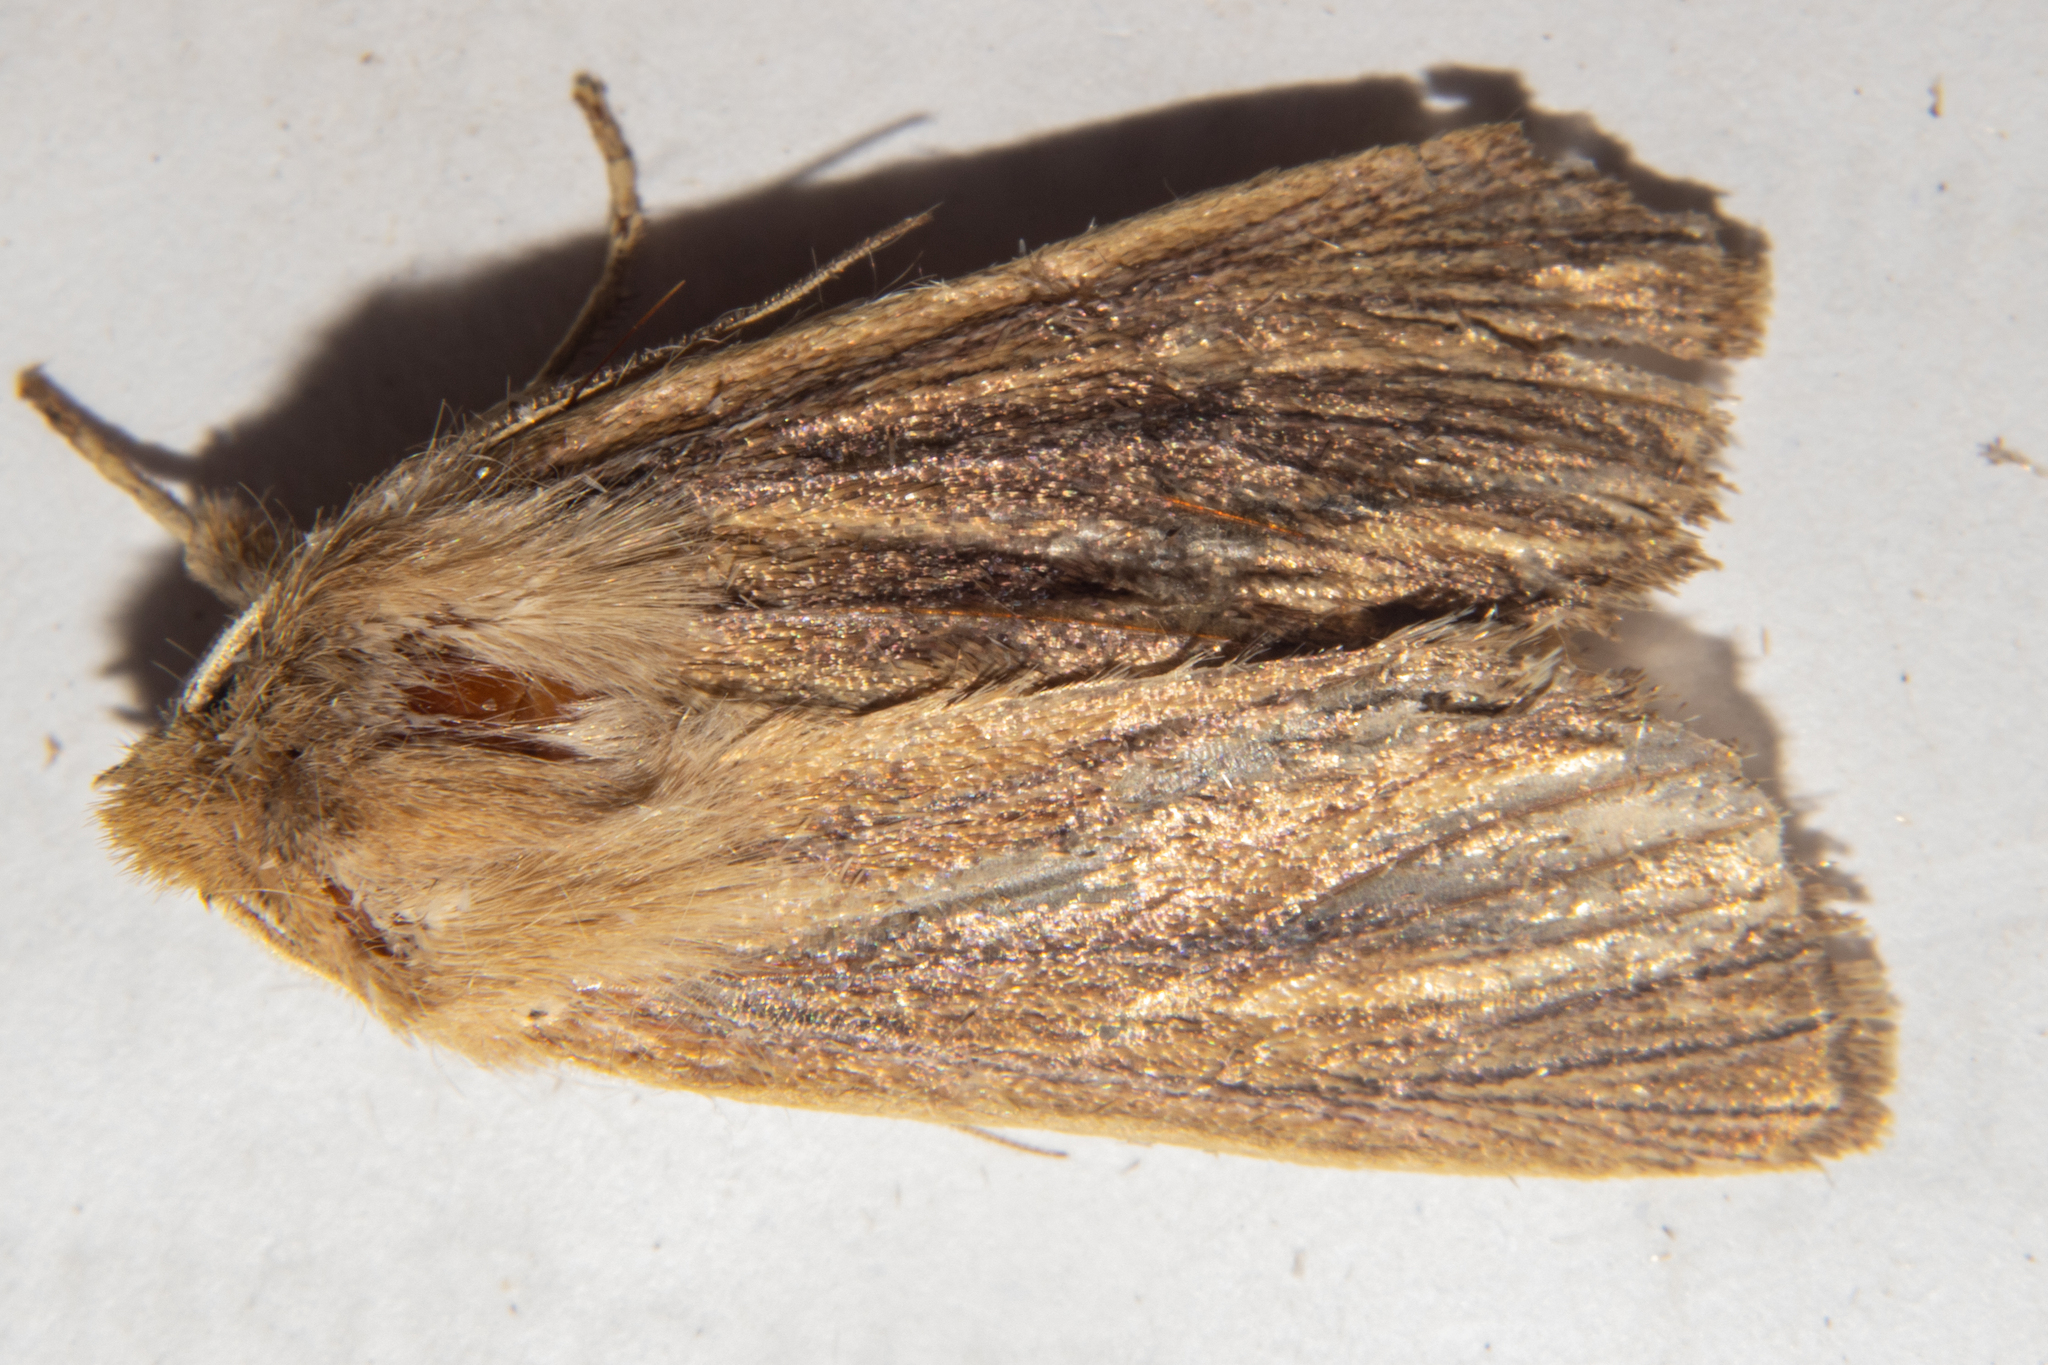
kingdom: Animalia
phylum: Arthropoda
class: Insecta
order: Lepidoptera
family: Noctuidae
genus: Ichneutica
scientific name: Ichneutica arotis
